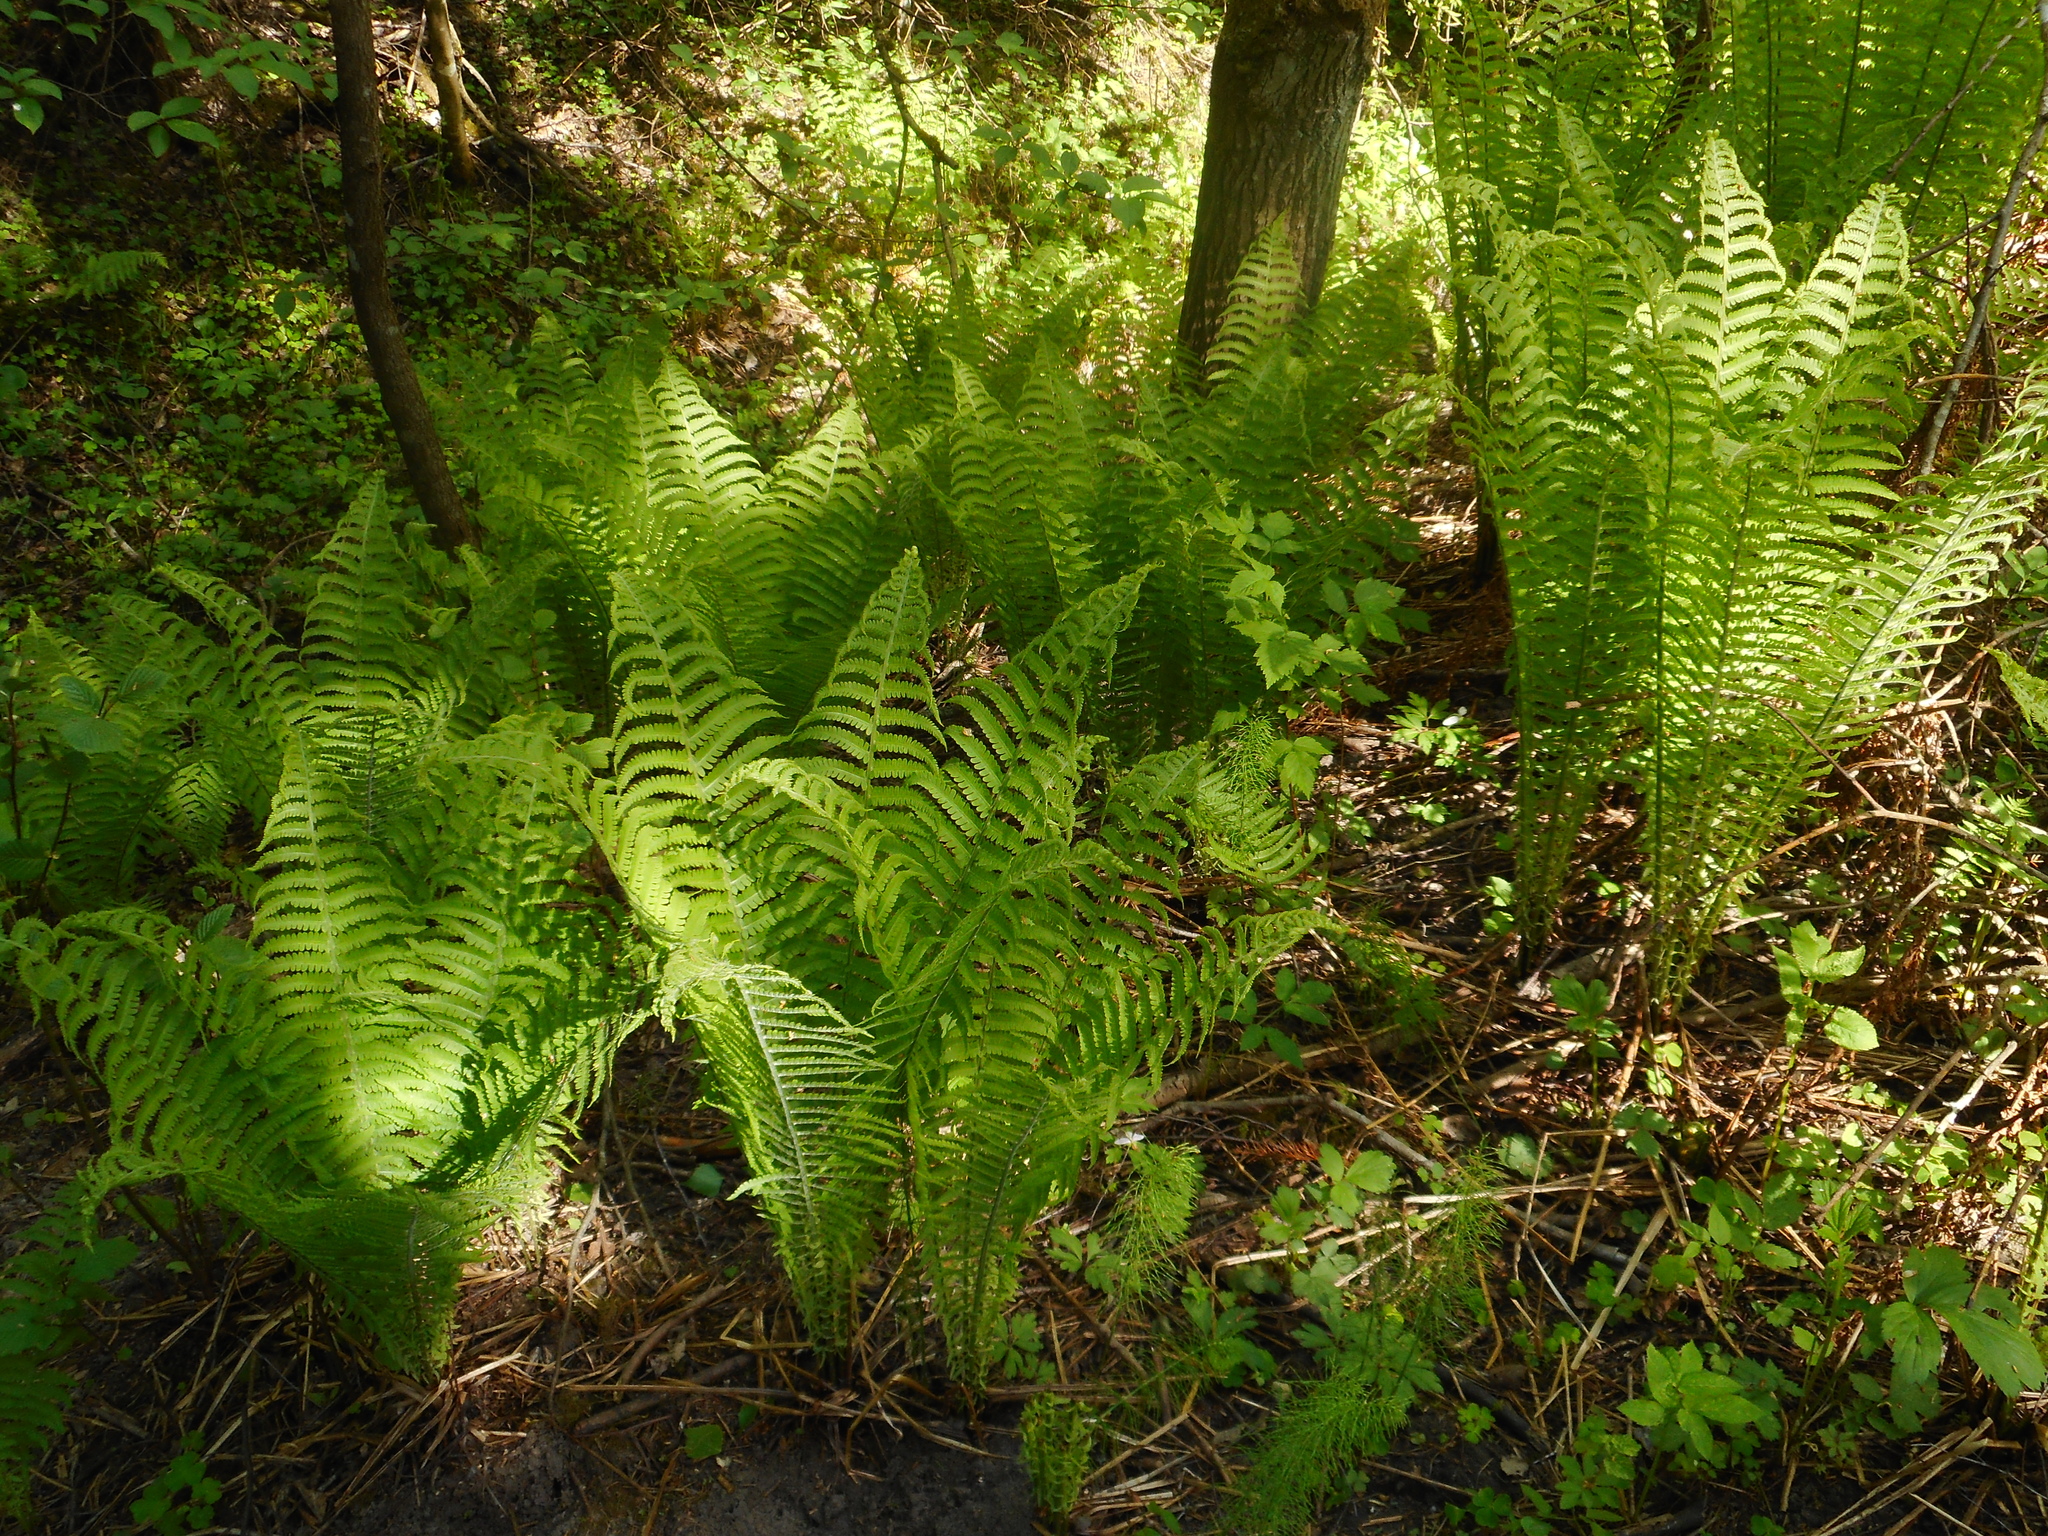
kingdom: Plantae
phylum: Tracheophyta
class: Polypodiopsida
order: Polypodiales
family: Onocleaceae
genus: Matteuccia
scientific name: Matteuccia struthiopteris
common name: Ostrich fern
